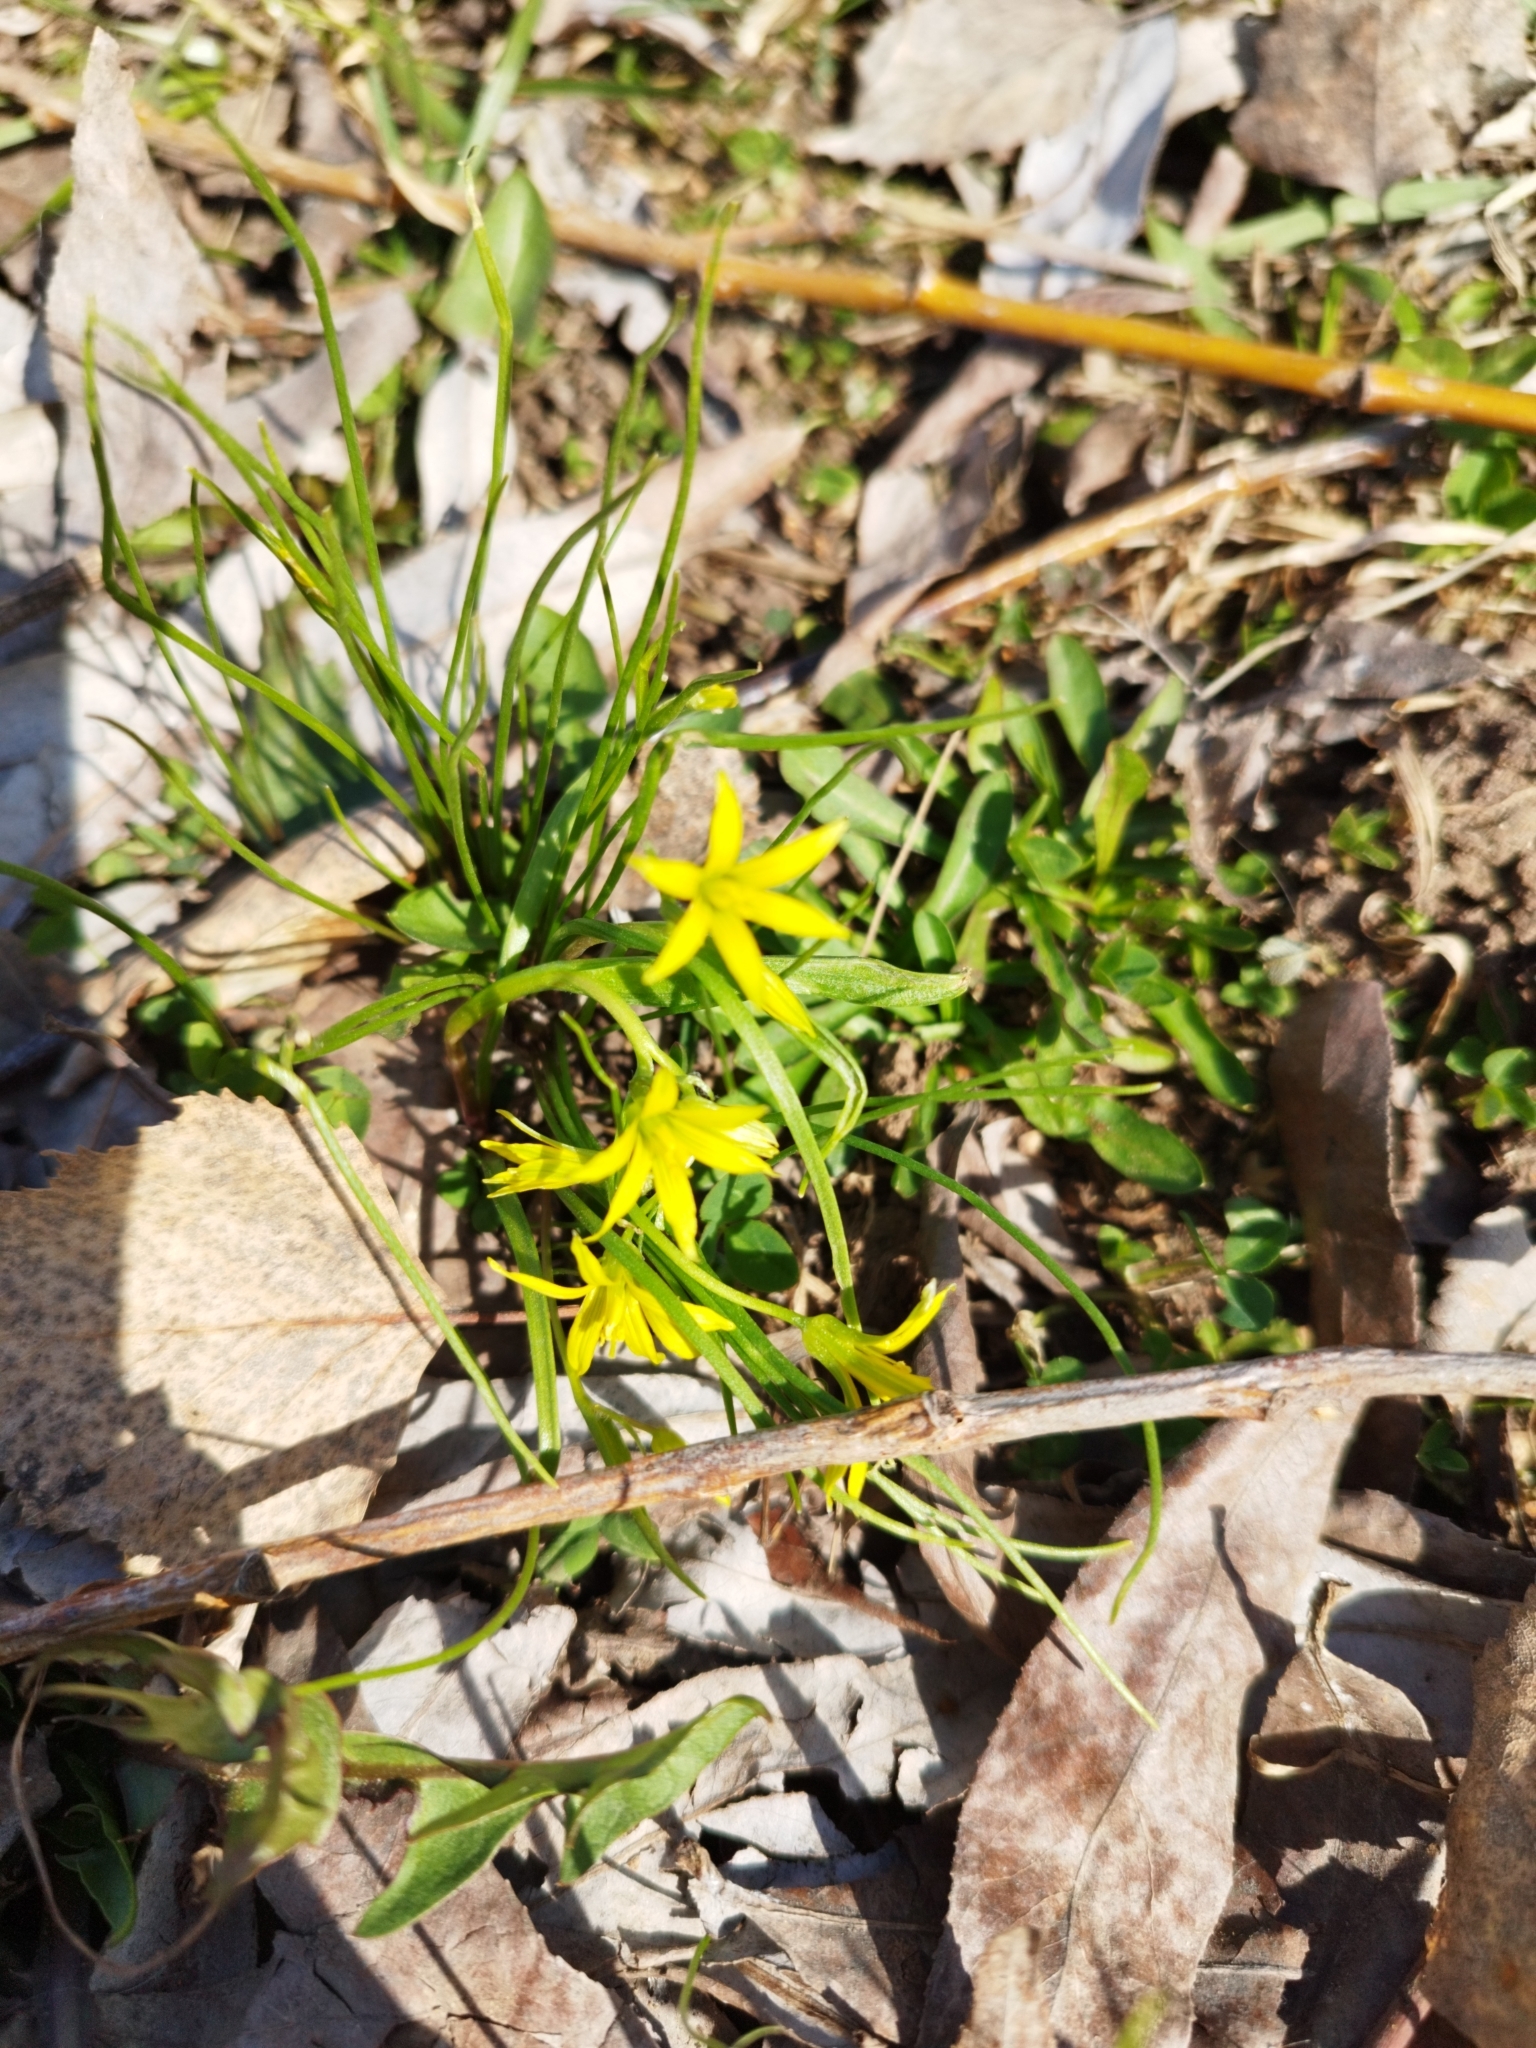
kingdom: Plantae
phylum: Tracheophyta
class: Liliopsida
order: Liliales
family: Liliaceae
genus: Gagea
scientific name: Gagea minima
